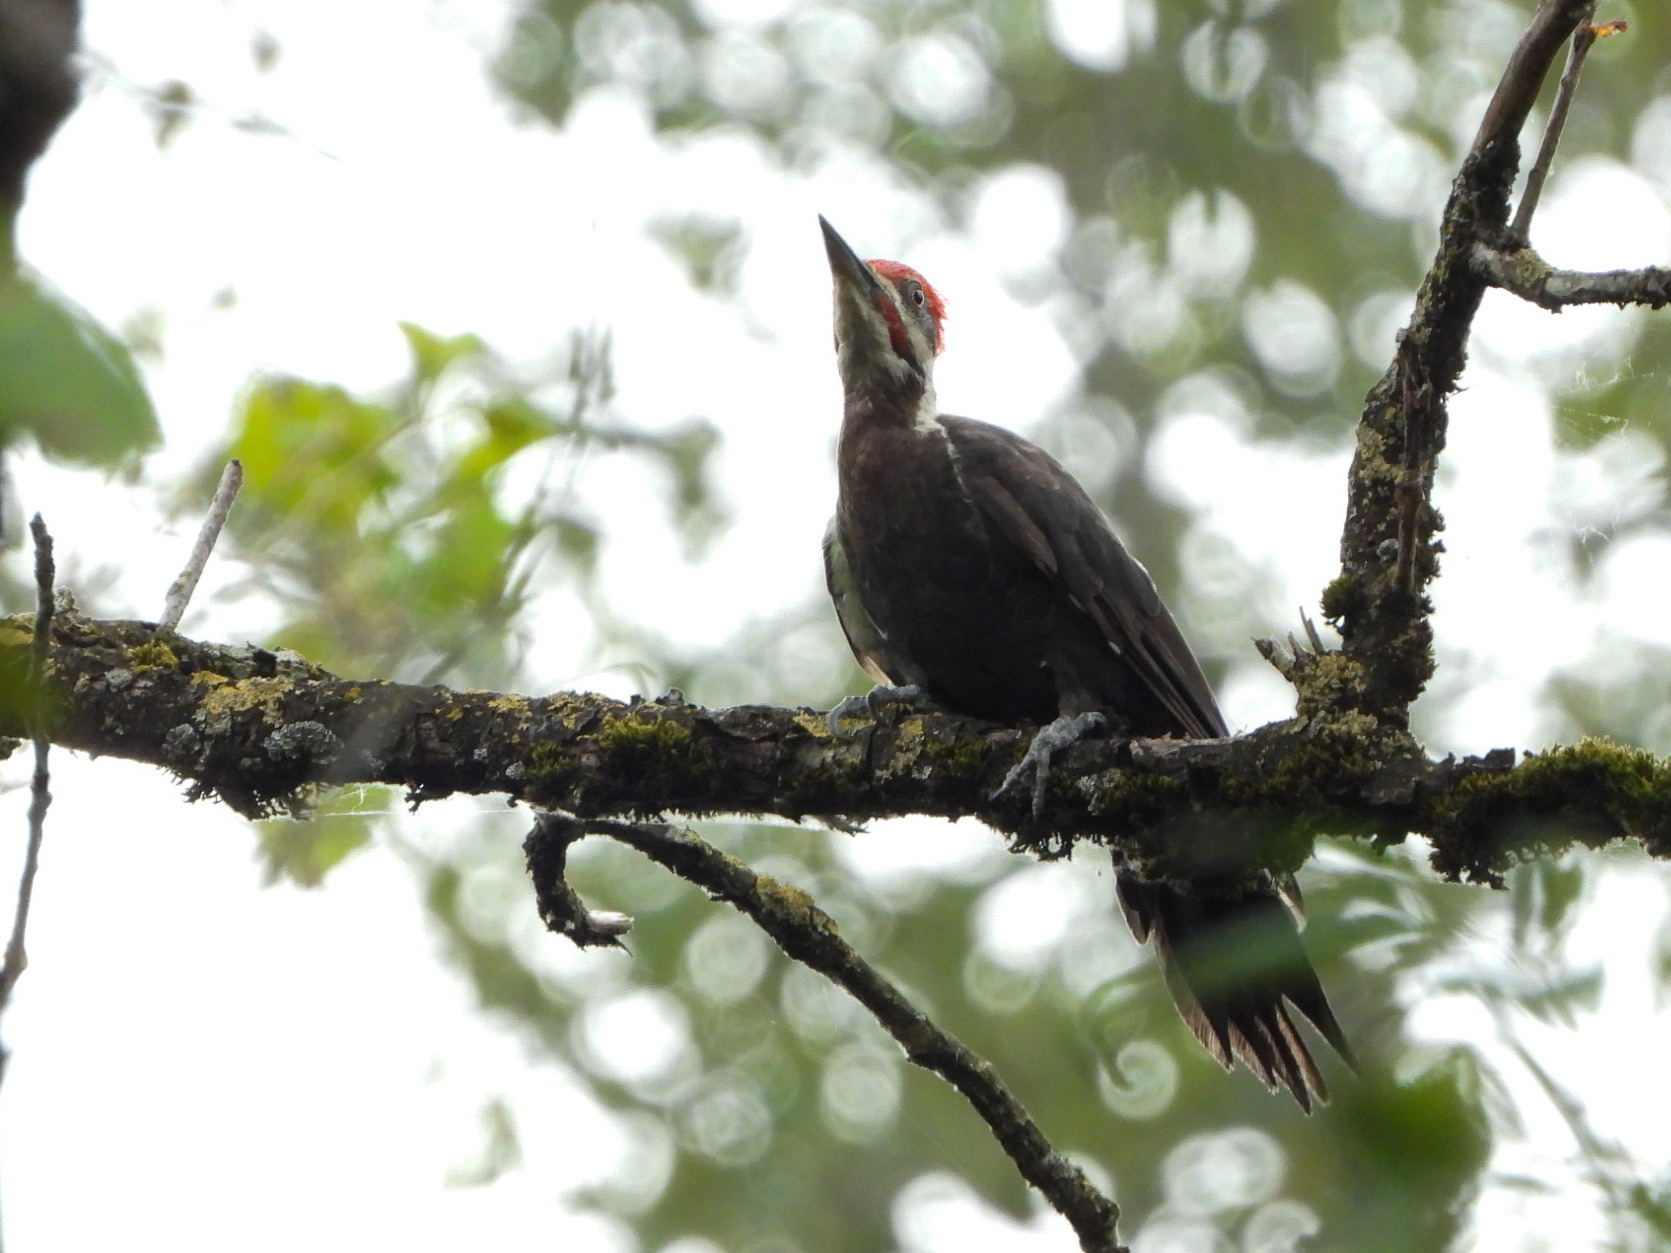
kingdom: Animalia
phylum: Chordata
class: Aves
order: Piciformes
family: Picidae
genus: Dryocopus
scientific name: Dryocopus pileatus
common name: Pileated woodpecker
